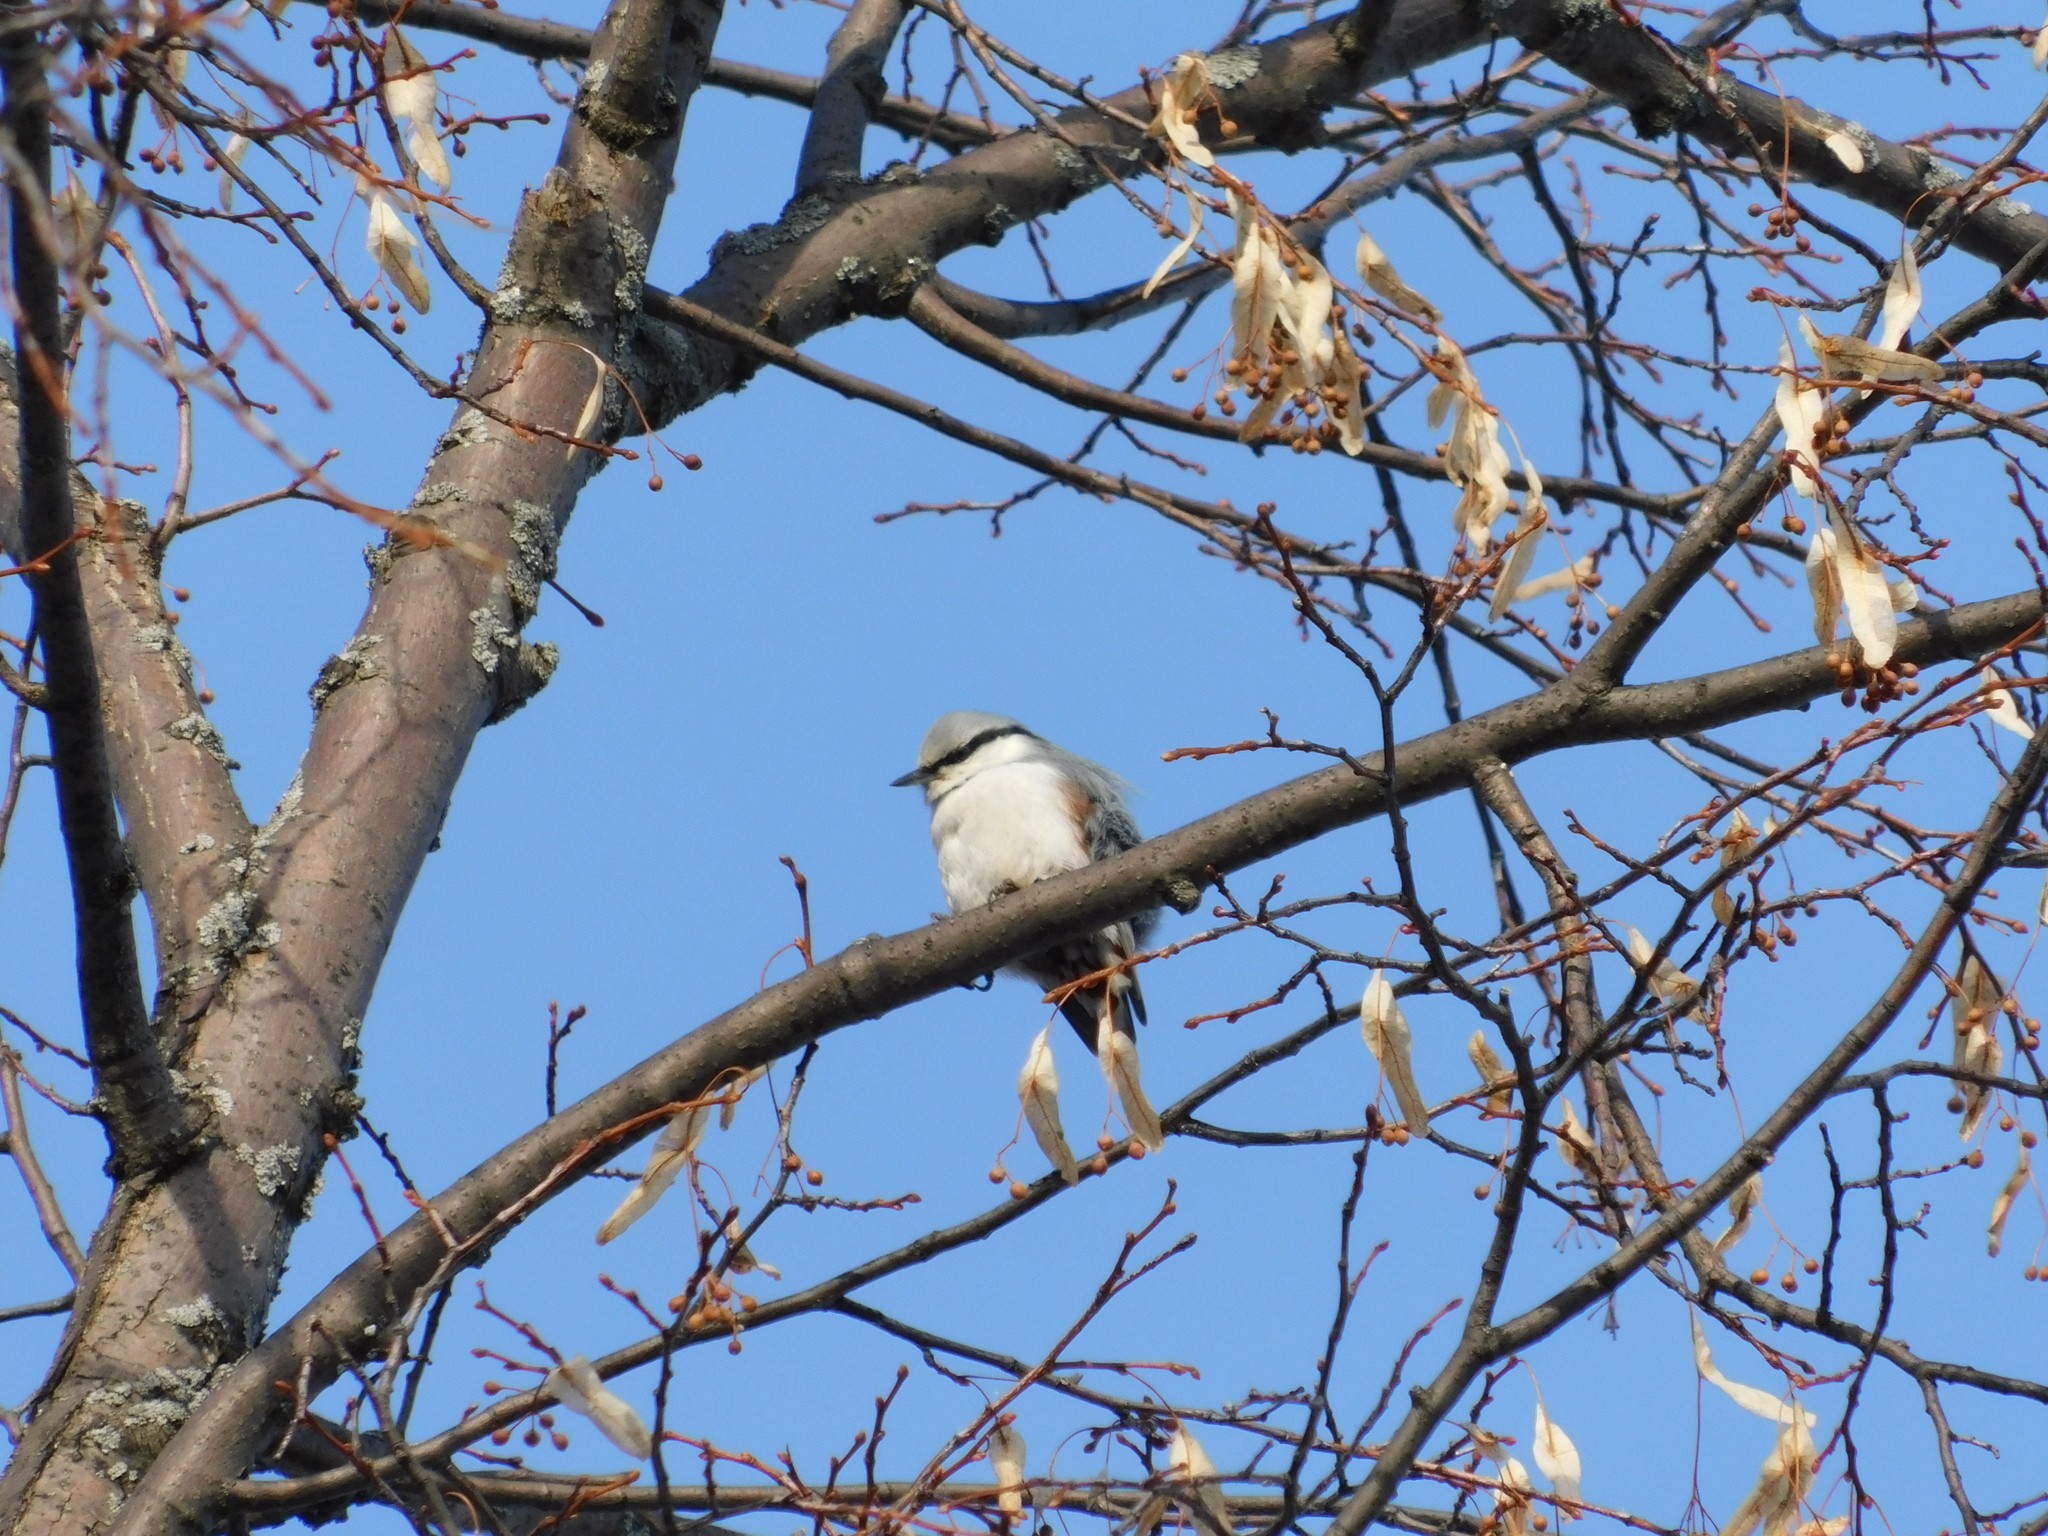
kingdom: Animalia
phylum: Chordata
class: Aves
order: Passeriformes
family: Sittidae
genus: Sitta
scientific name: Sitta europaea
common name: Eurasian nuthatch
